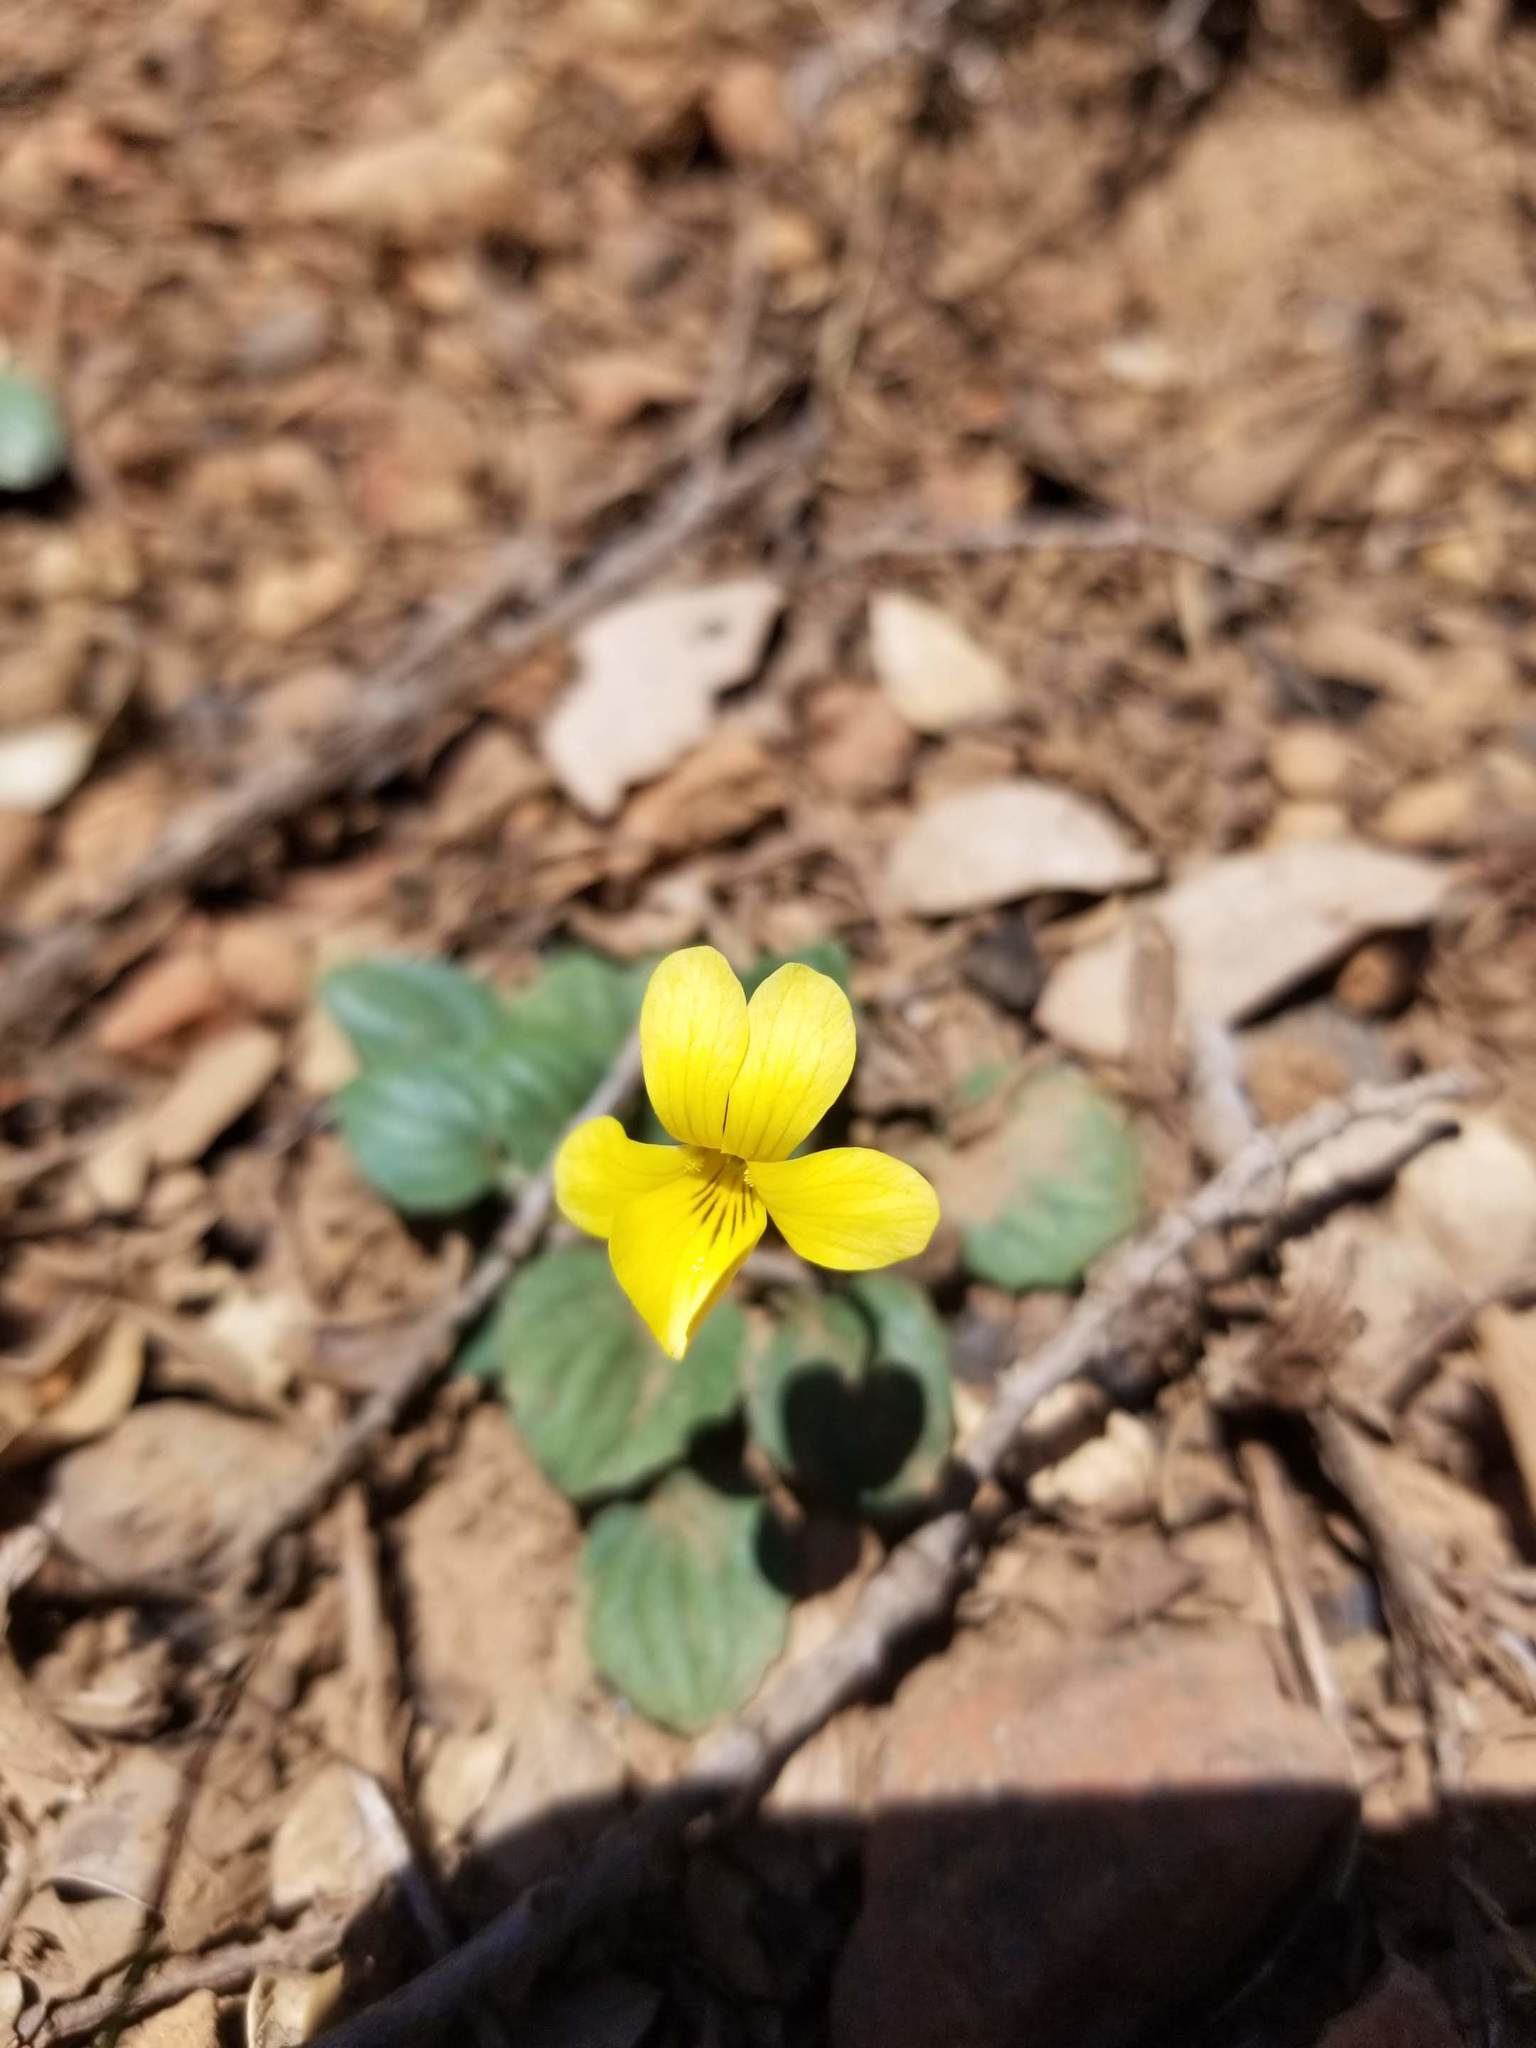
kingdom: Plantae
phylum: Tracheophyta
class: Magnoliopsida
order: Malpighiales
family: Violaceae
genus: Viola
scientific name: Viola purpurea
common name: Pine violet
